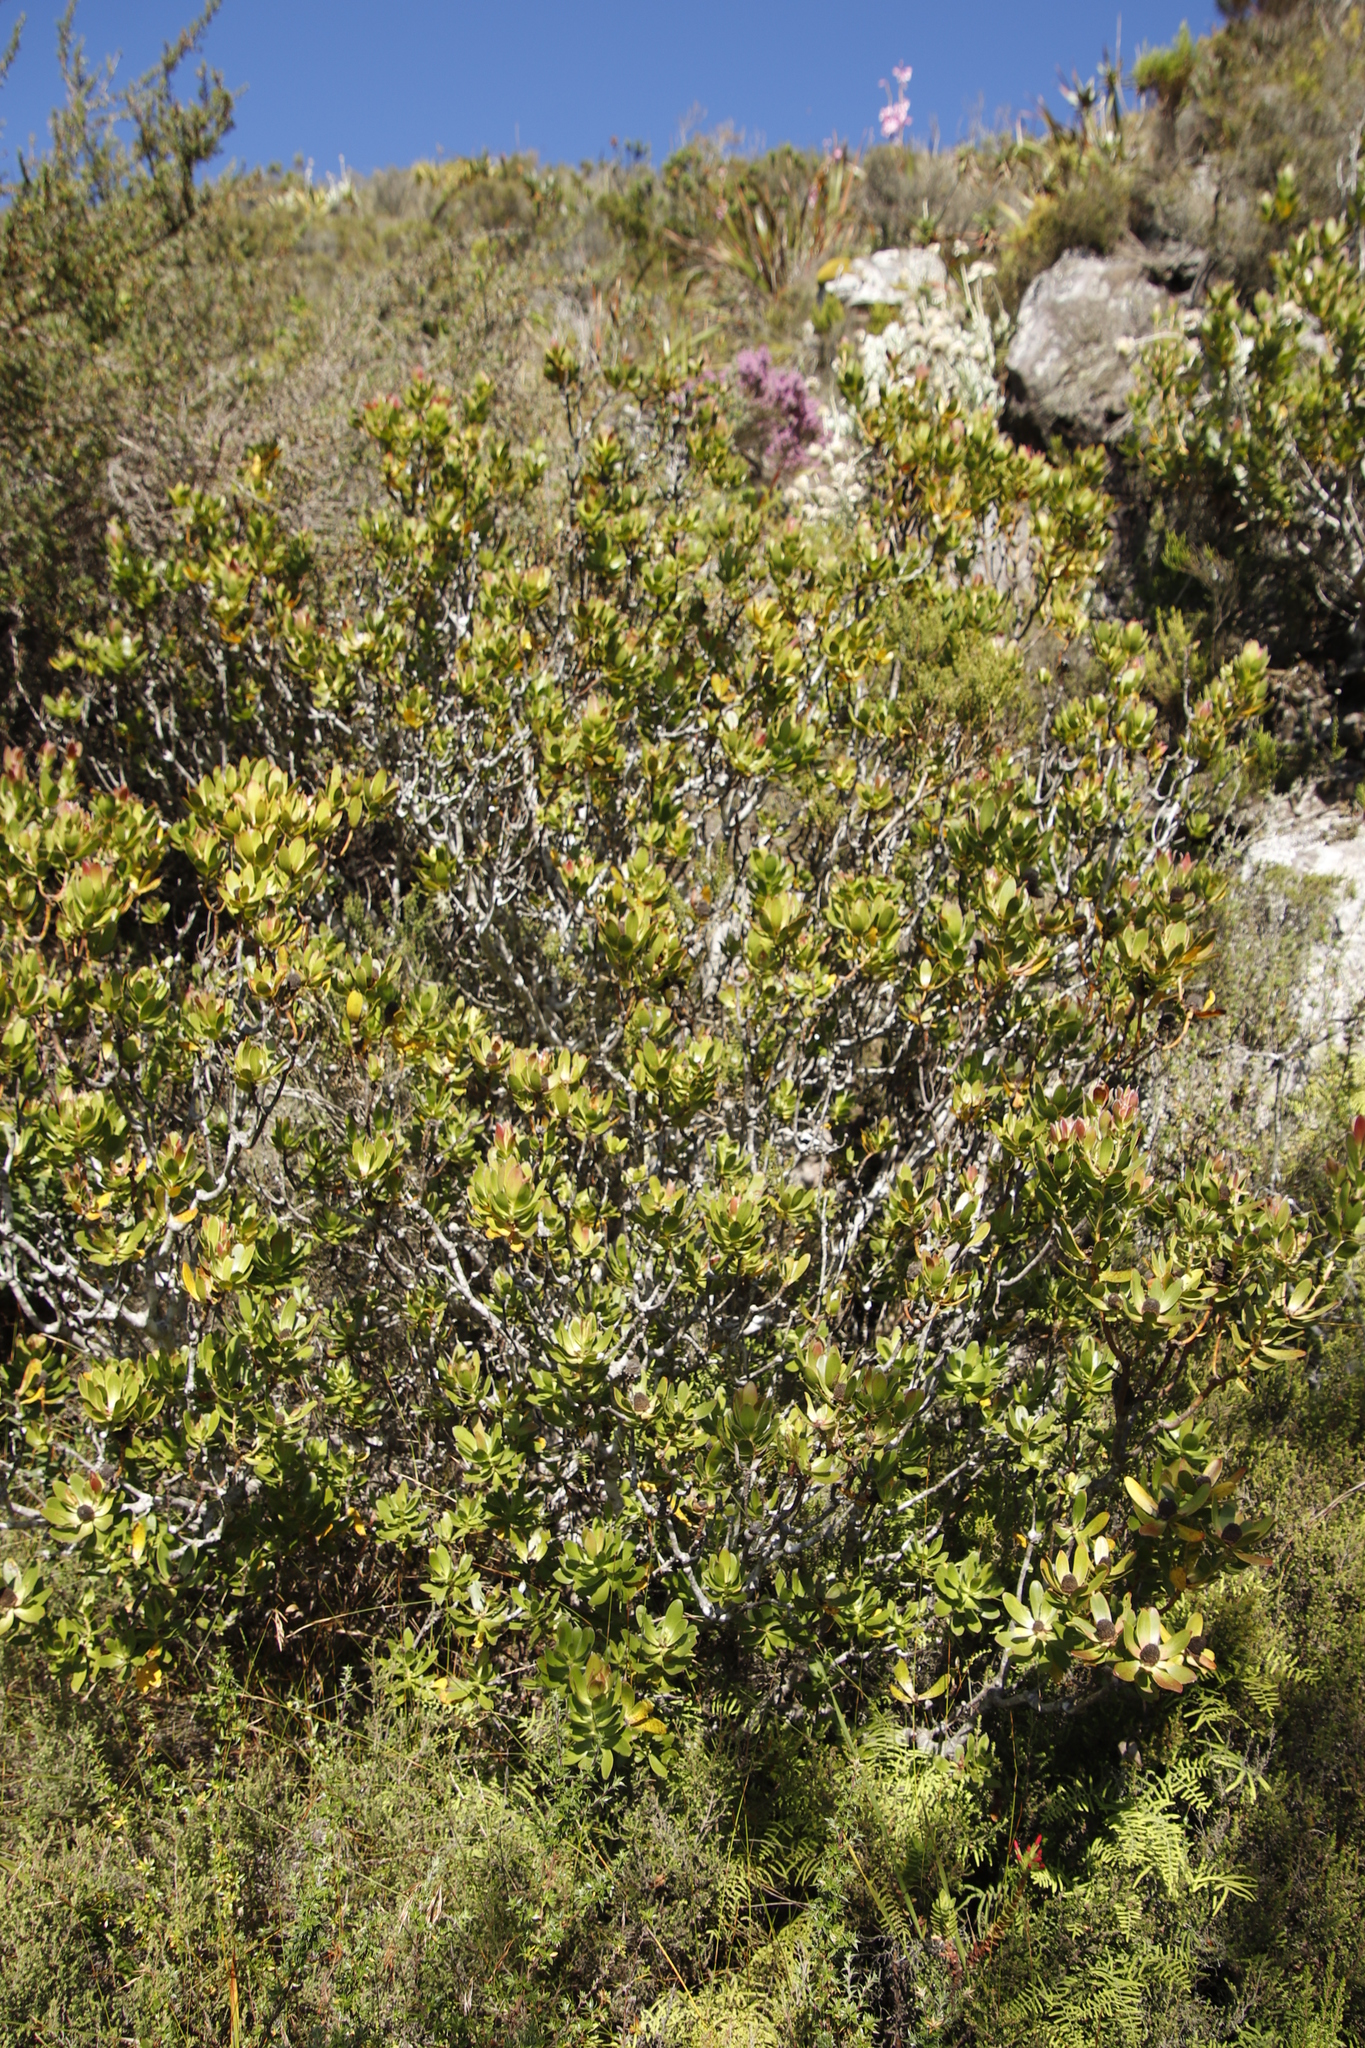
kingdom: Plantae
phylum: Tracheophyta
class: Magnoliopsida
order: Proteales
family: Proteaceae
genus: Leucadendron
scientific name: Leucadendron strobilinum
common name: Mountain rose
